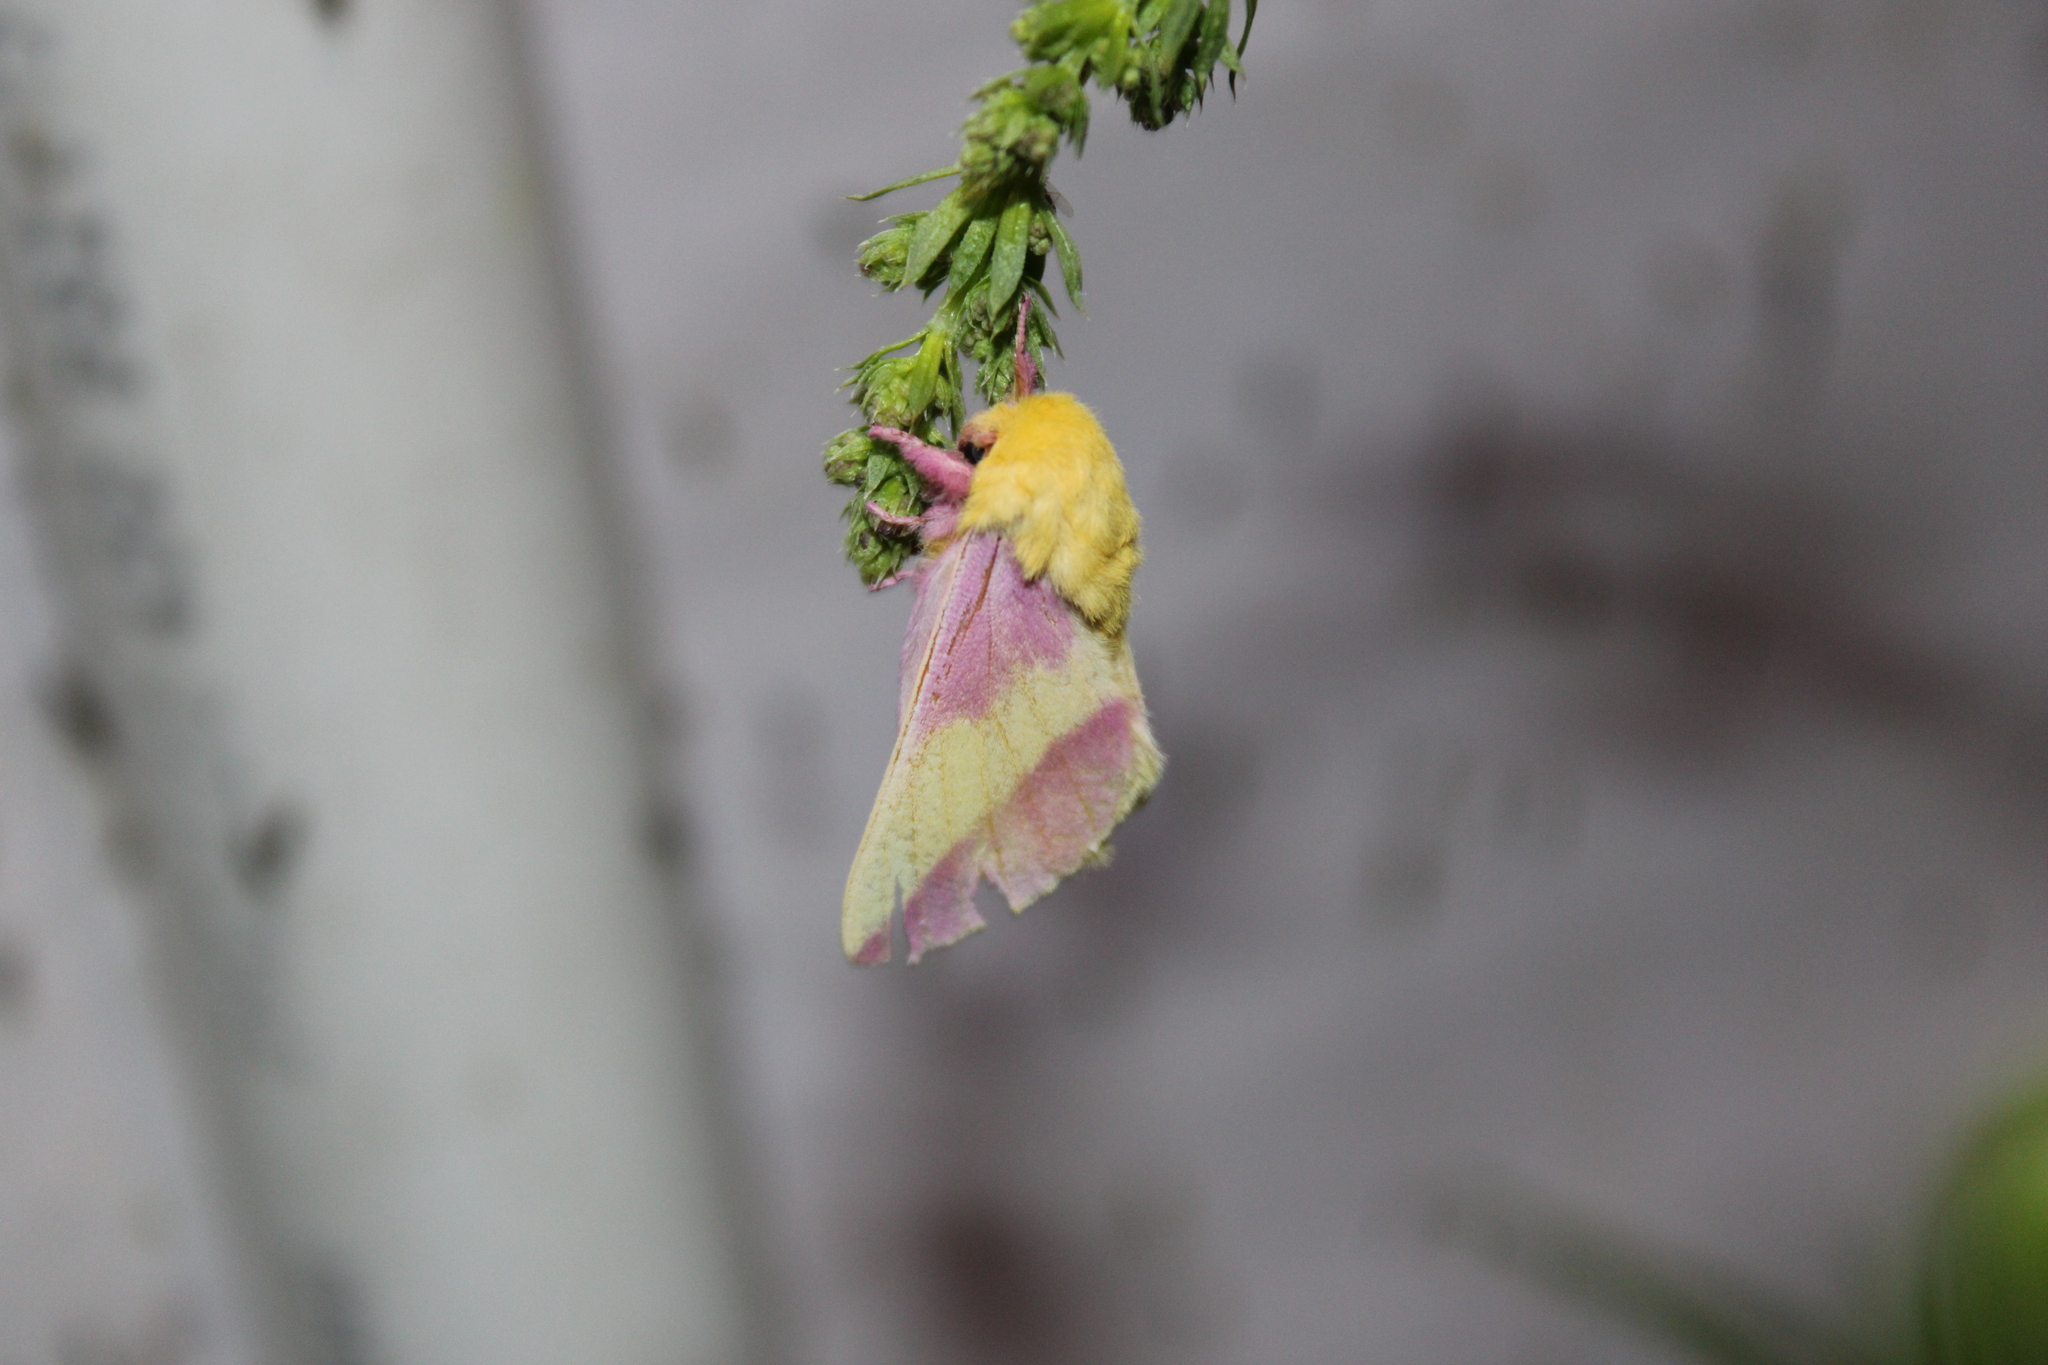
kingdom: Animalia
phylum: Arthropoda
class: Insecta
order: Lepidoptera
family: Saturniidae
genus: Dryocampa
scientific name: Dryocampa rubicunda
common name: Rosy maple moth
